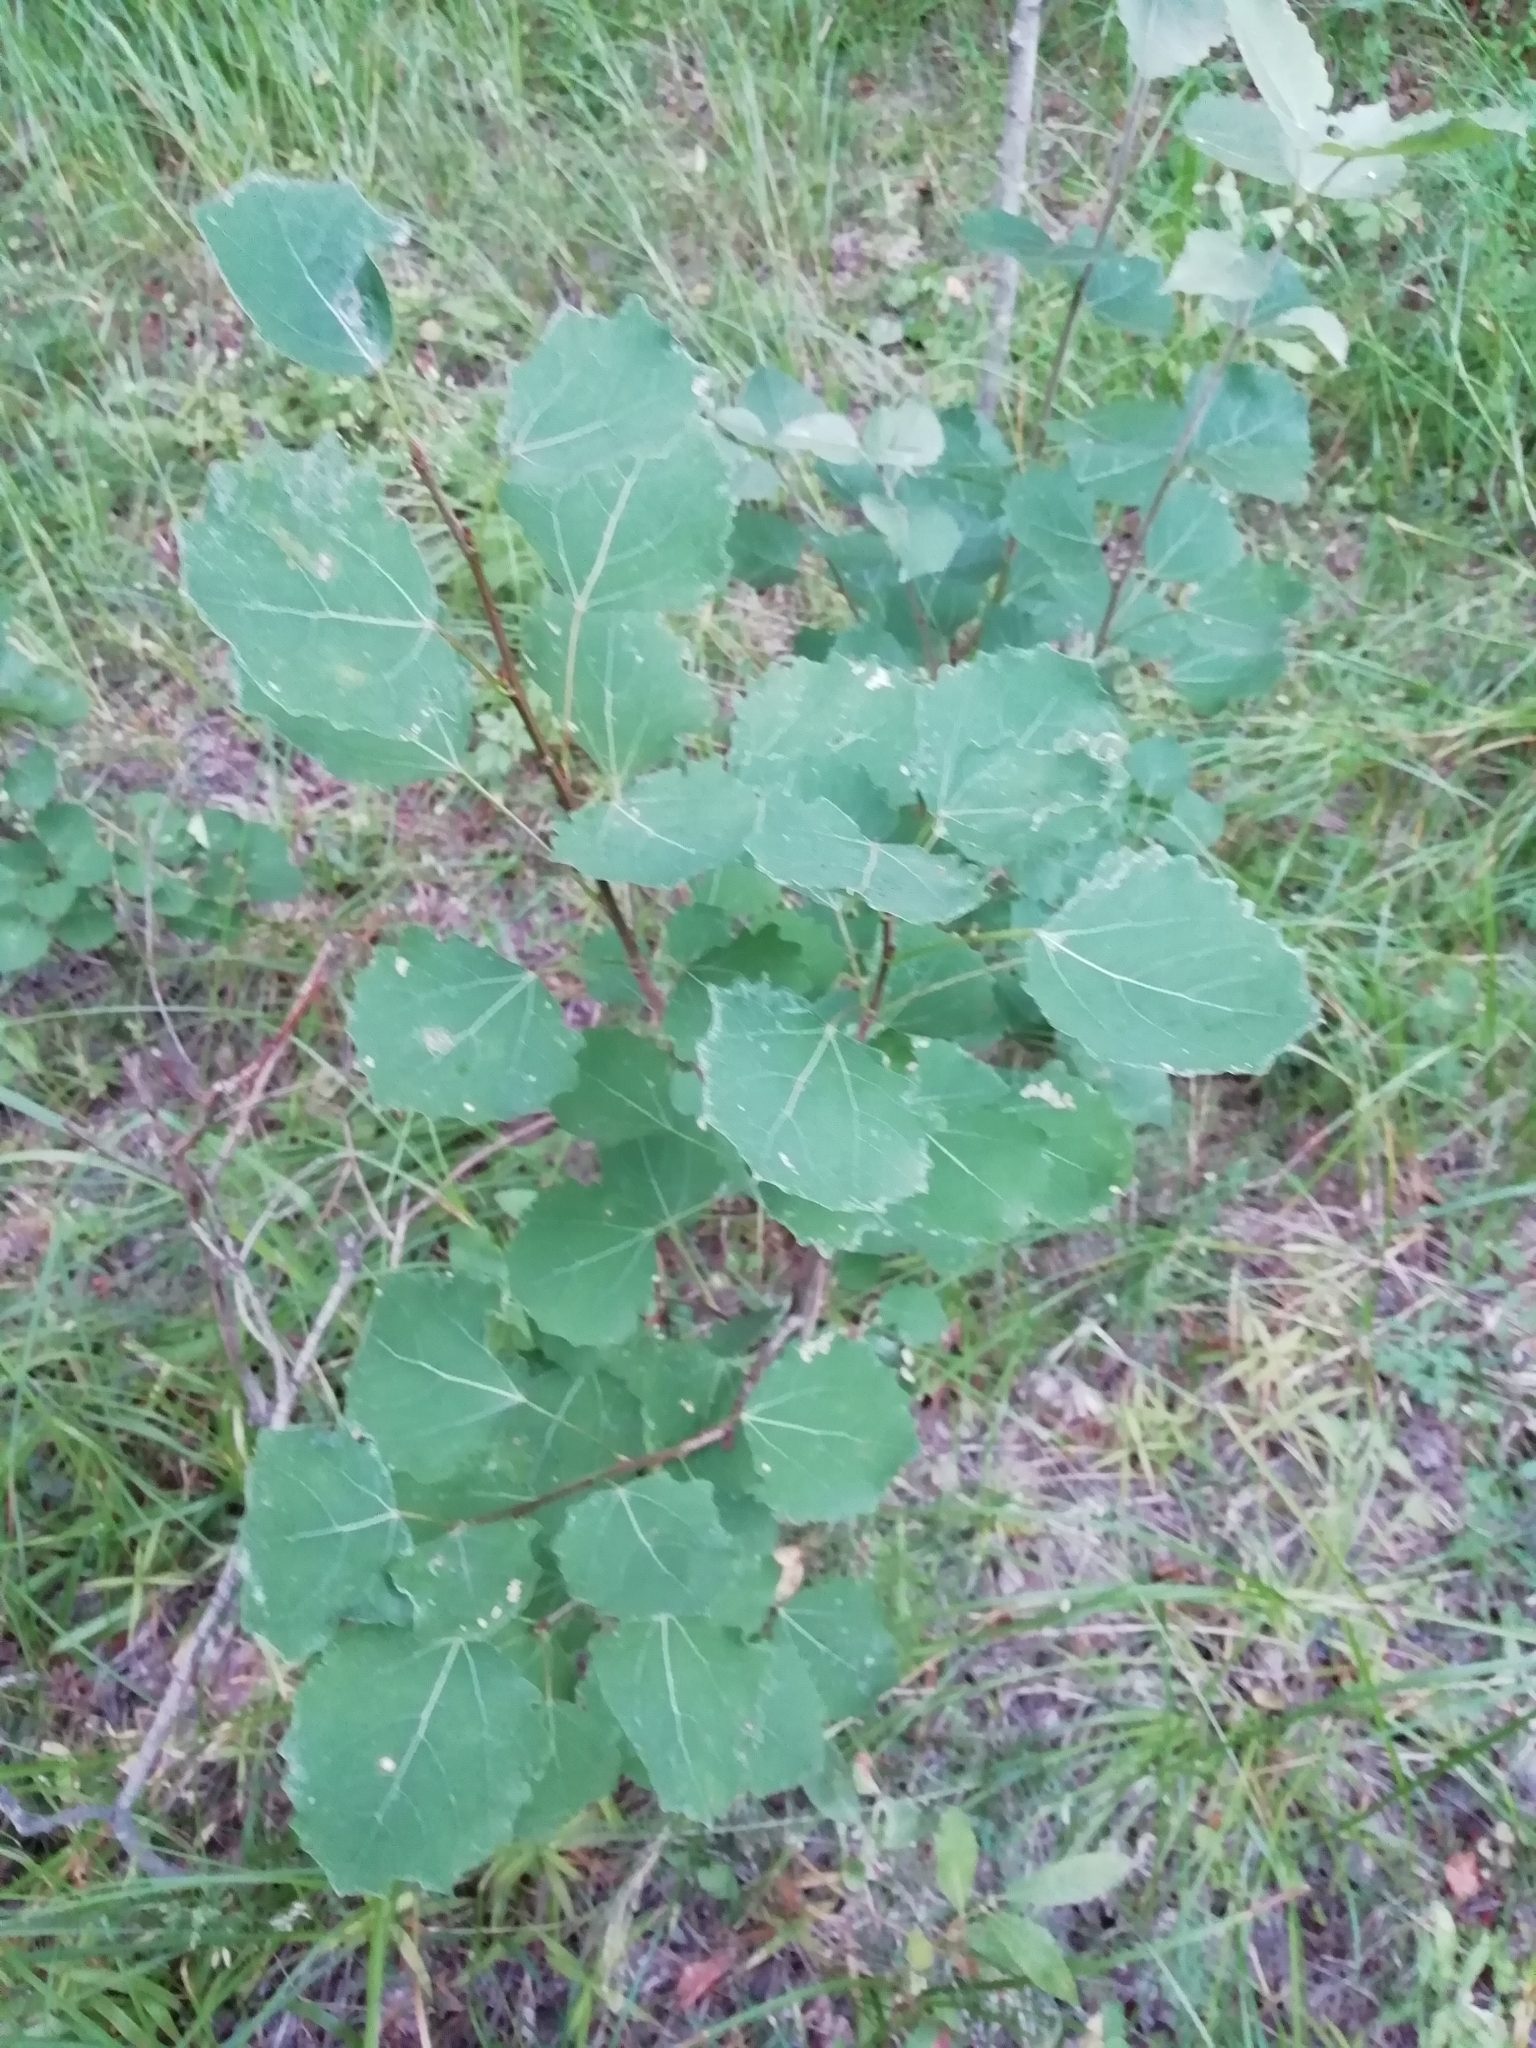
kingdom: Plantae
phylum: Tracheophyta
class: Magnoliopsida
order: Malpighiales
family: Salicaceae
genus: Populus
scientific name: Populus tremula
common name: European aspen
